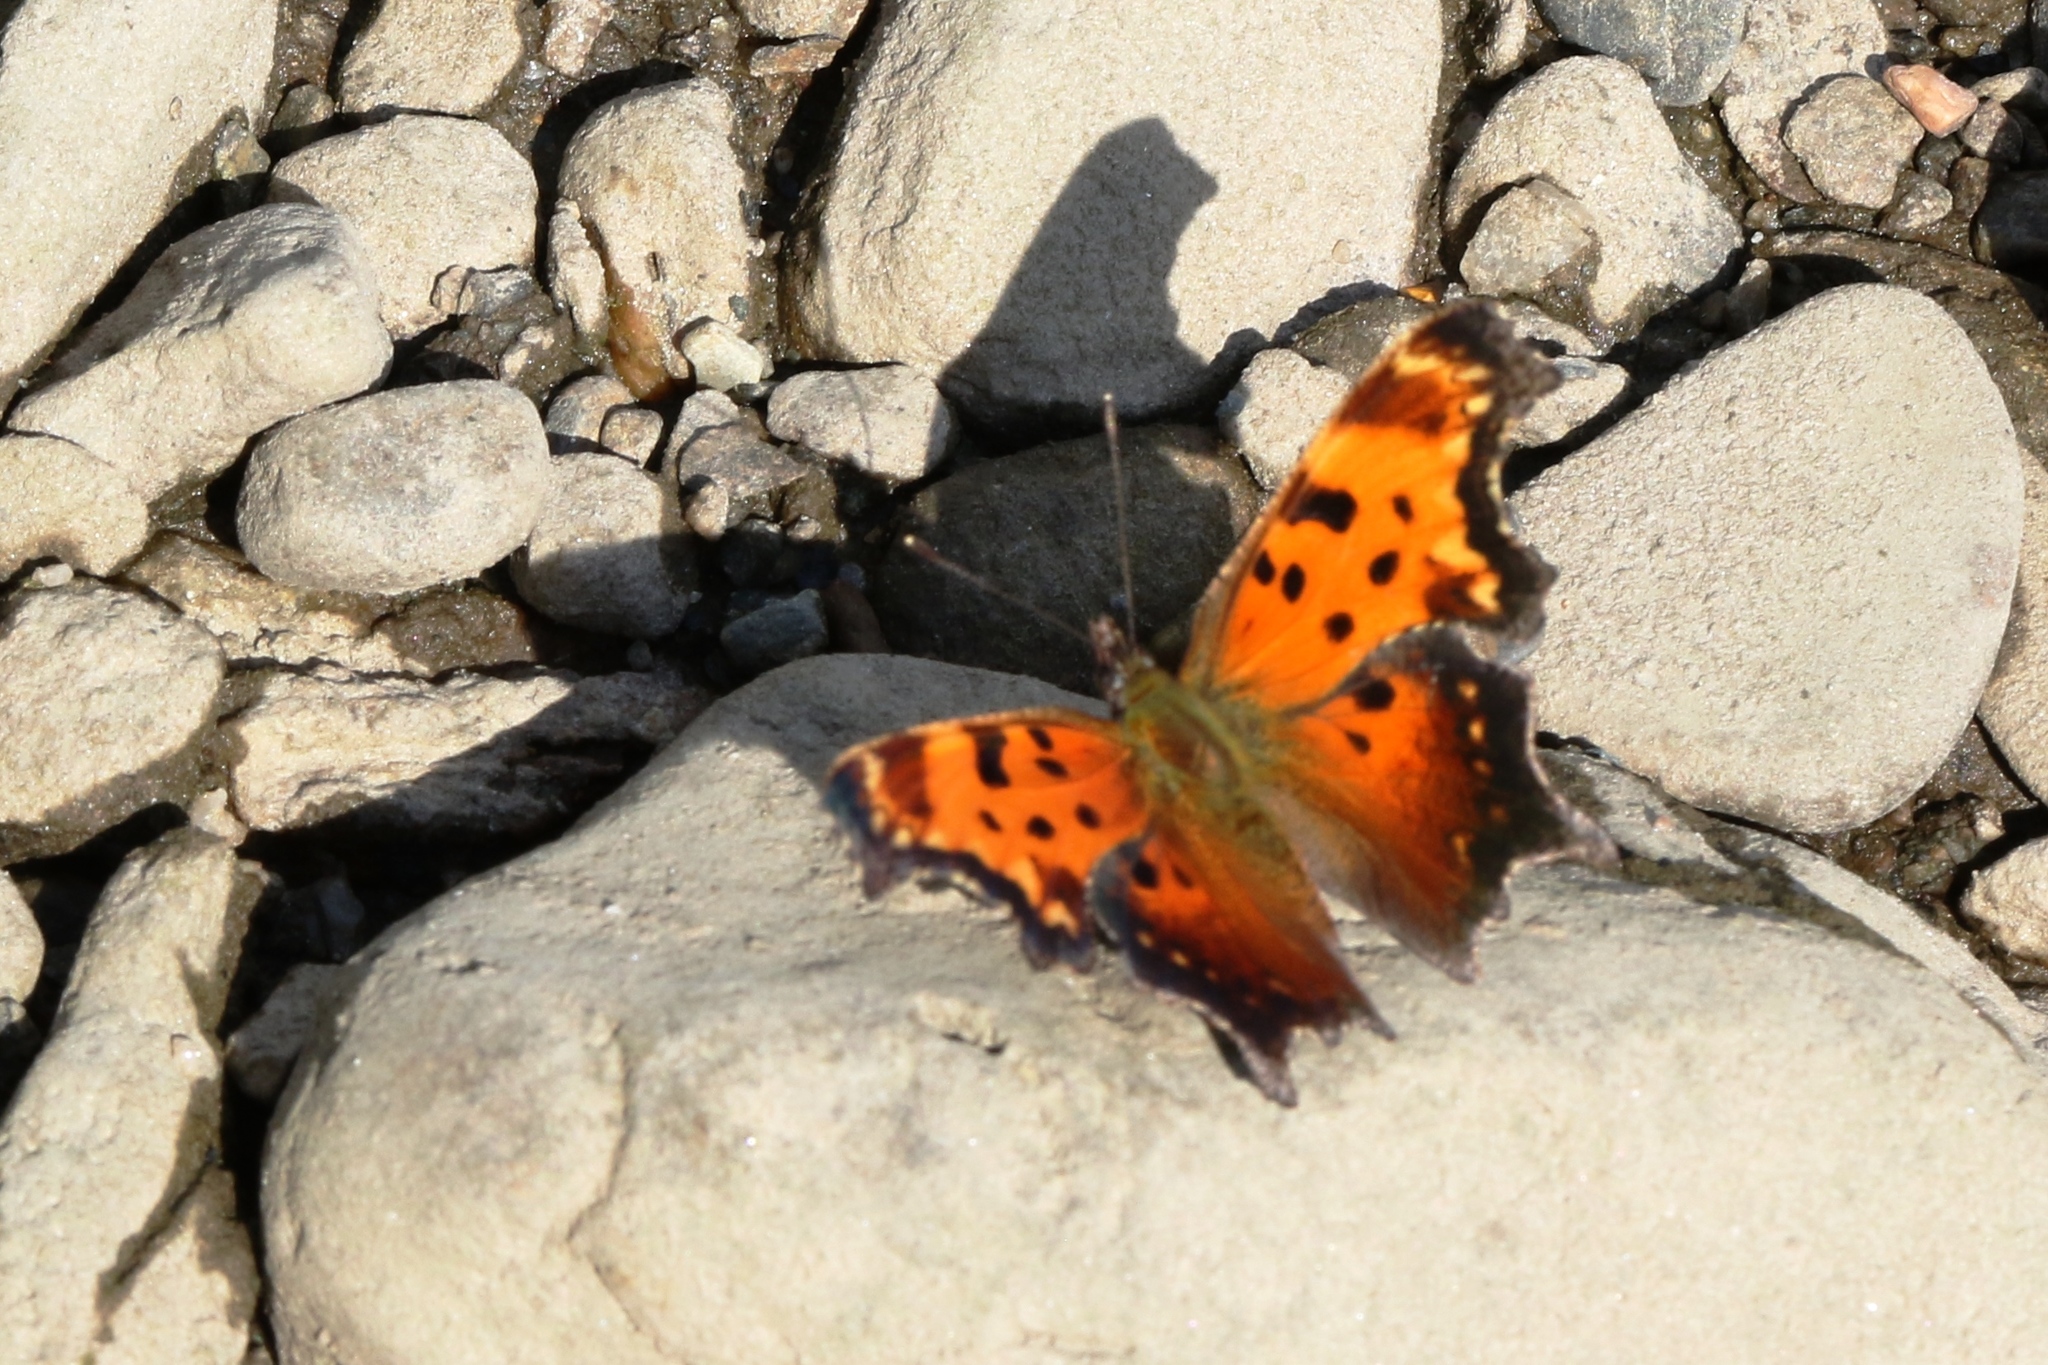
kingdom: Animalia
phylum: Arthropoda
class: Insecta
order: Lepidoptera
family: Nymphalidae
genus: Polygonia
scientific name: Polygonia progne
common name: Gray comma
